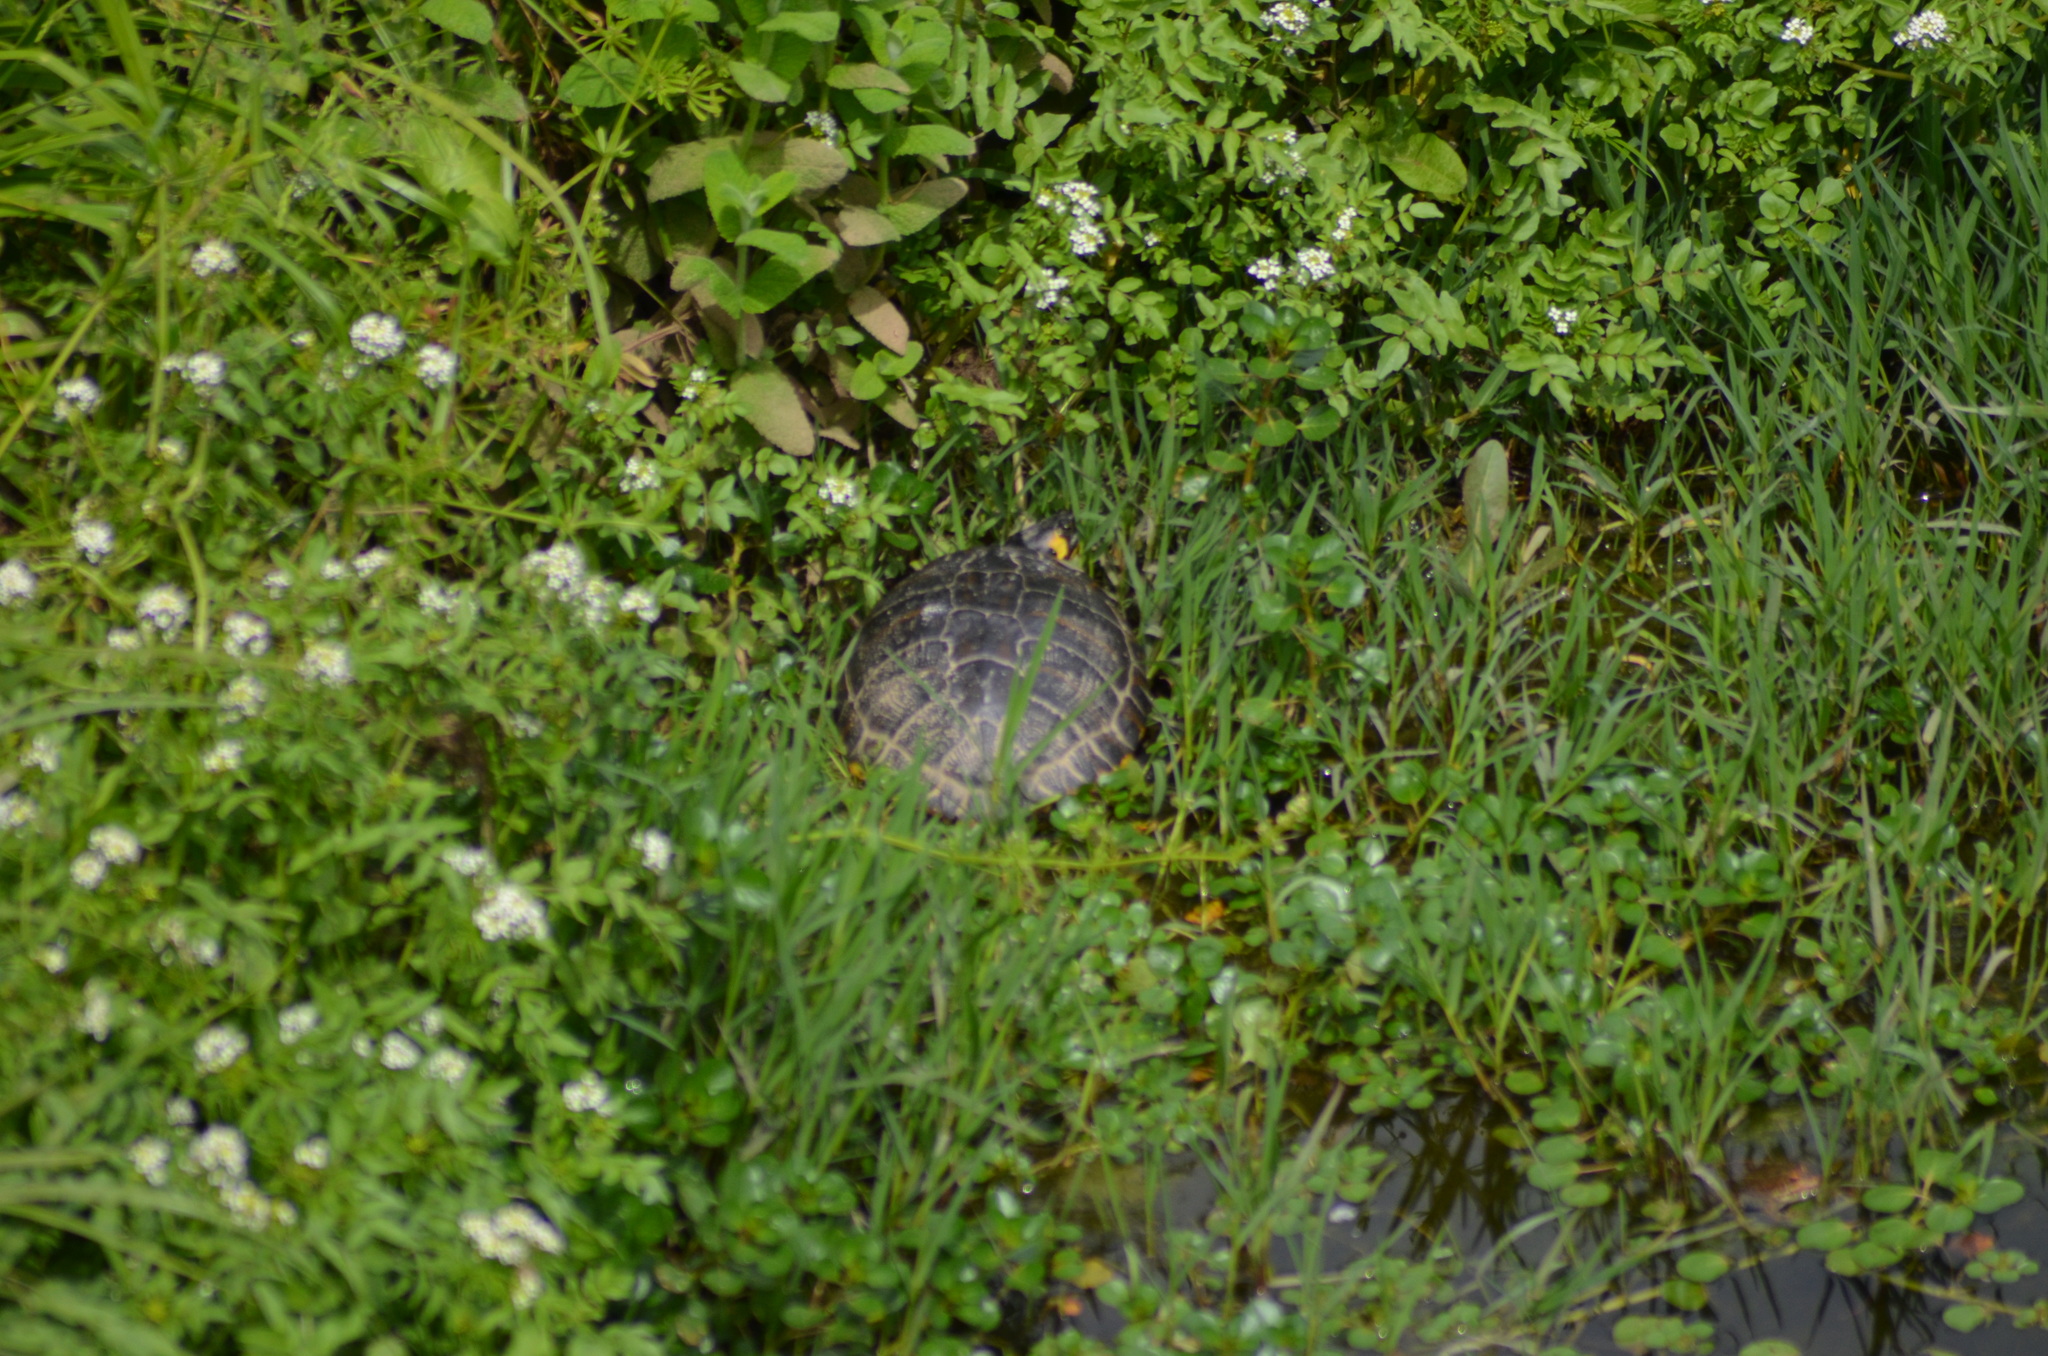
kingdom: Animalia
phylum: Chordata
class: Testudines
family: Emydidae
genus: Trachemys
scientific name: Trachemys scripta
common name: Slider
